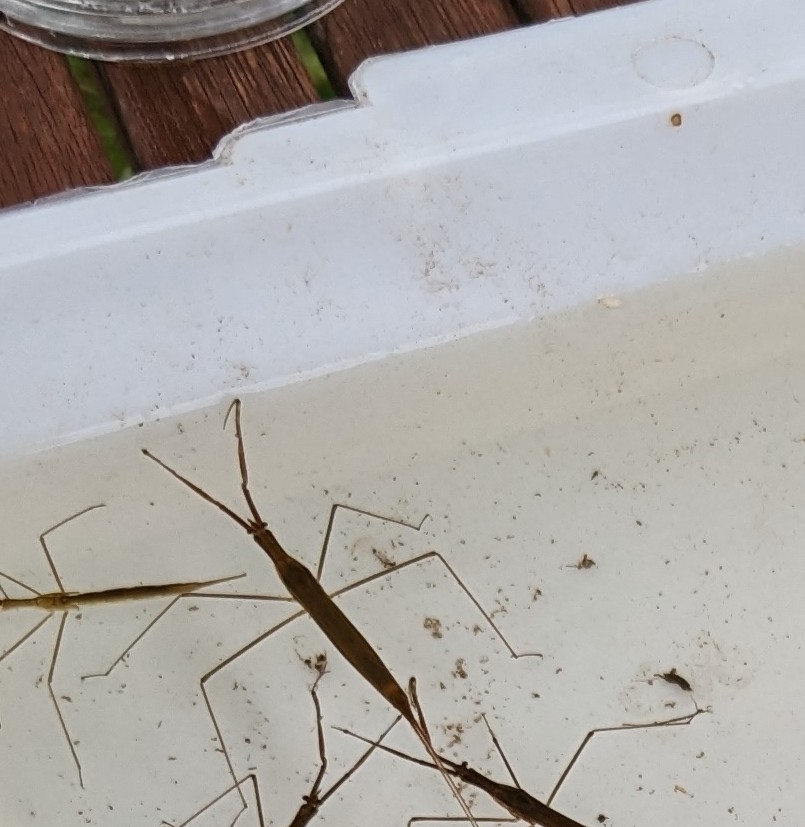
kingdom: Animalia
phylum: Arthropoda
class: Insecta
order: Hemiptera
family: Nepidae
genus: Ranatra
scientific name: Ranatra linearis
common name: Water stick insect
